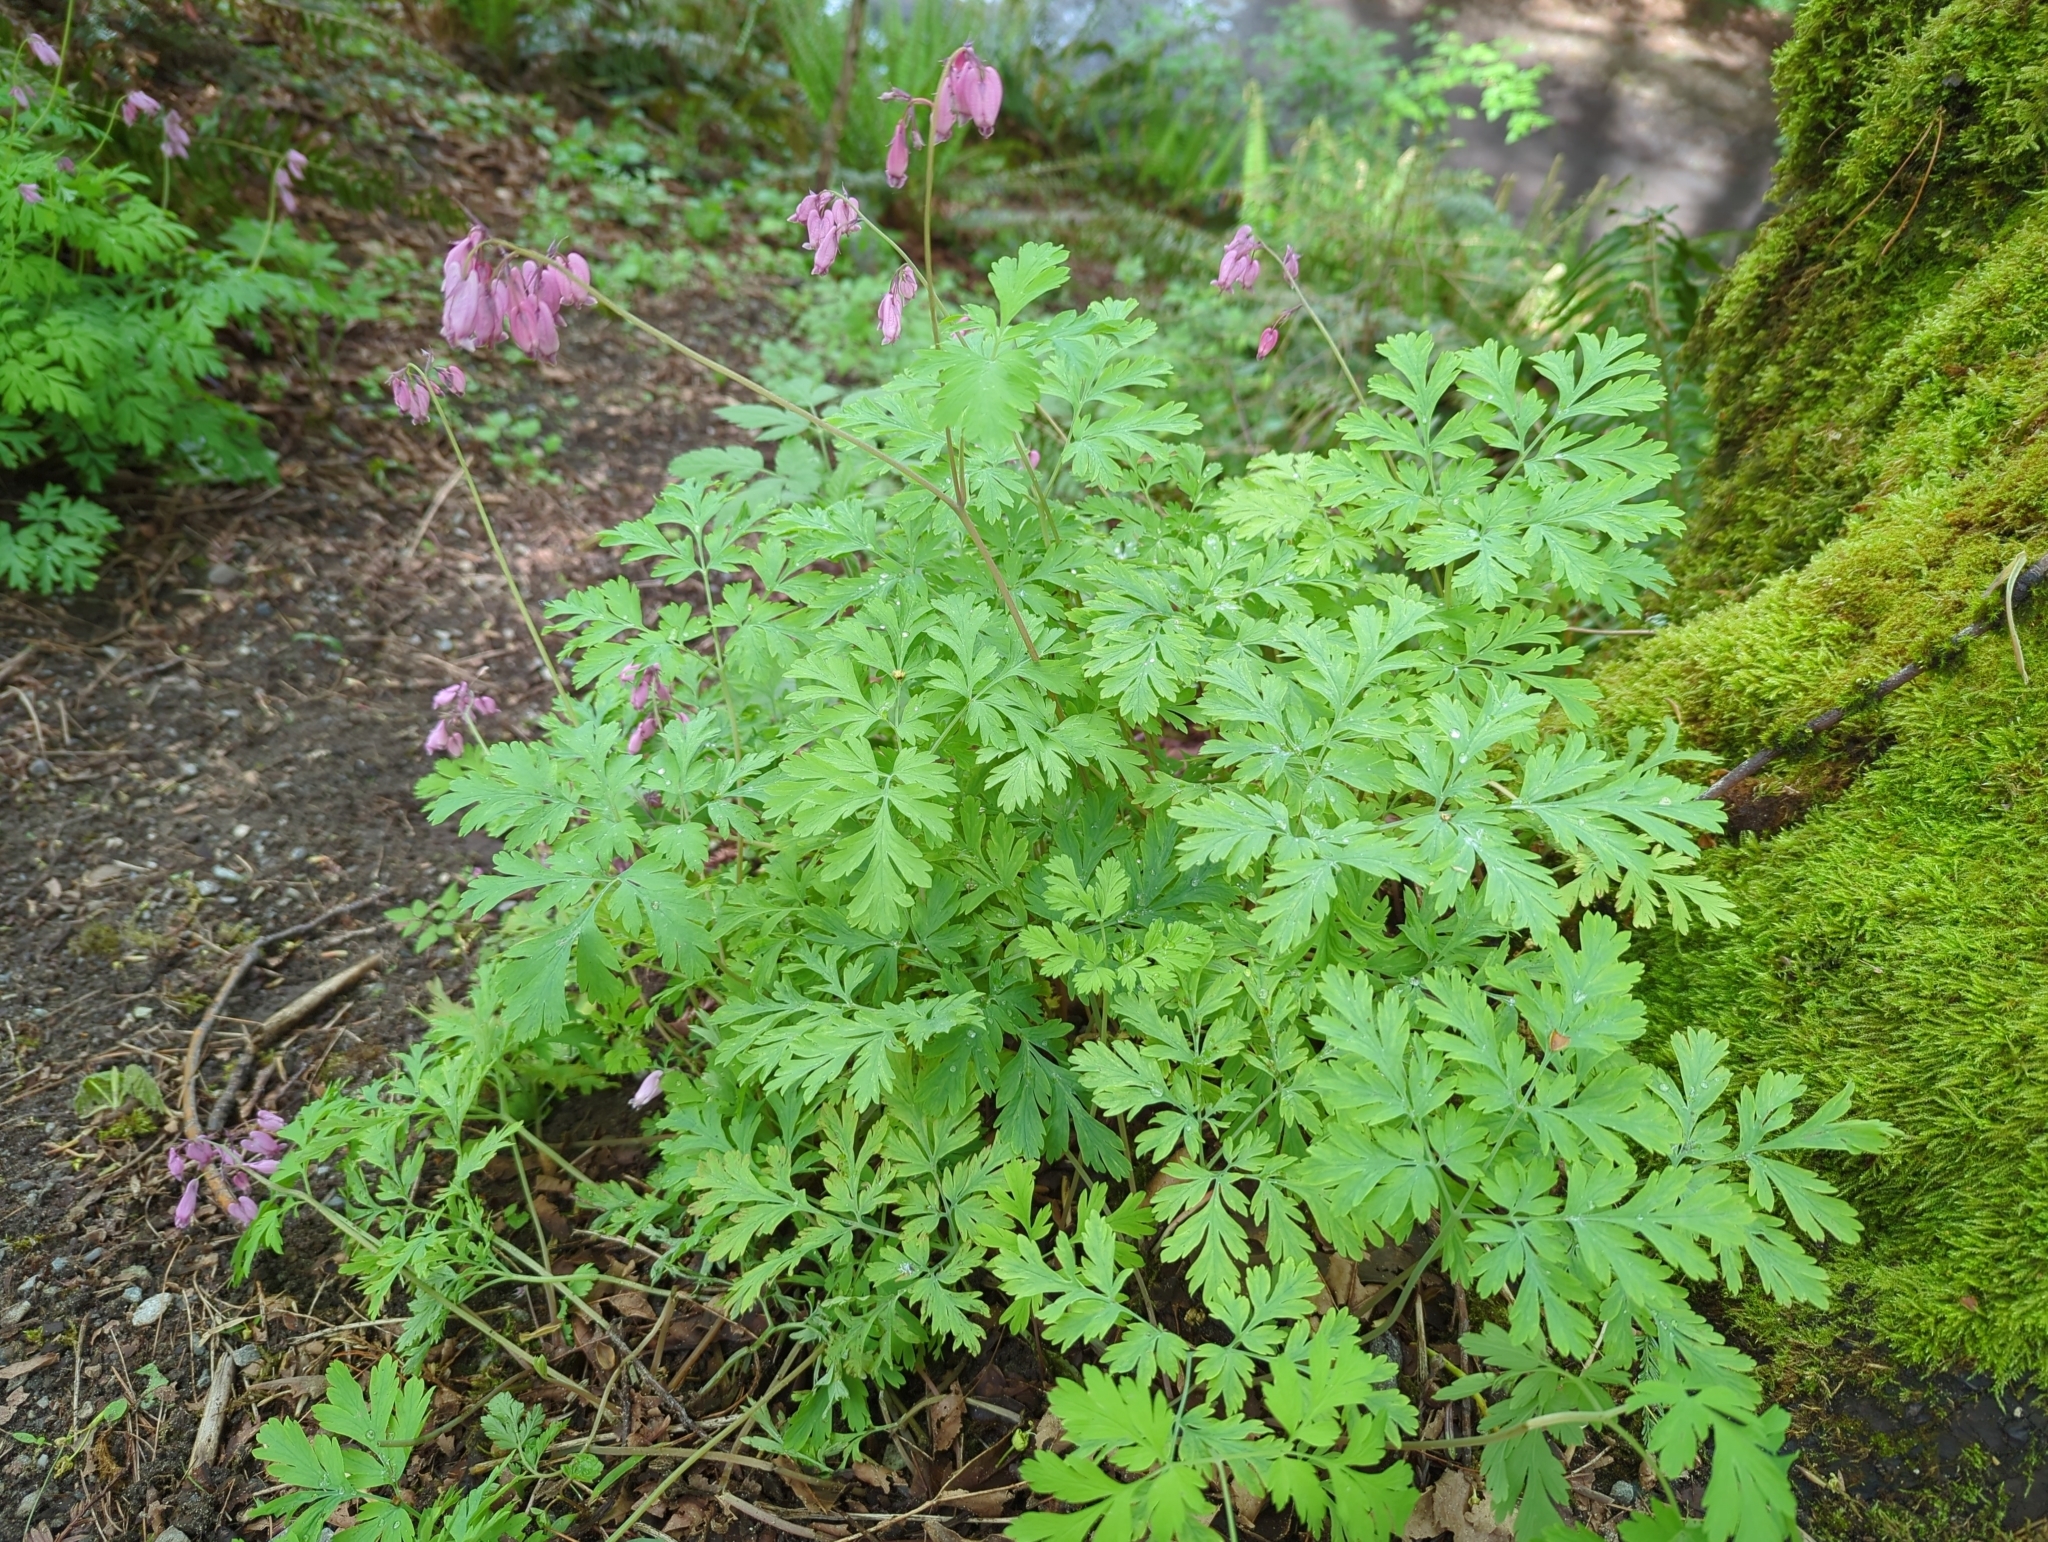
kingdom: Plantae
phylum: Tracheophyta
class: Magnoliopsida
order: Ranunculales
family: Papaveraceae
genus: Dicentra
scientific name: Dicentra formosa
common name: Bleeding-heart
